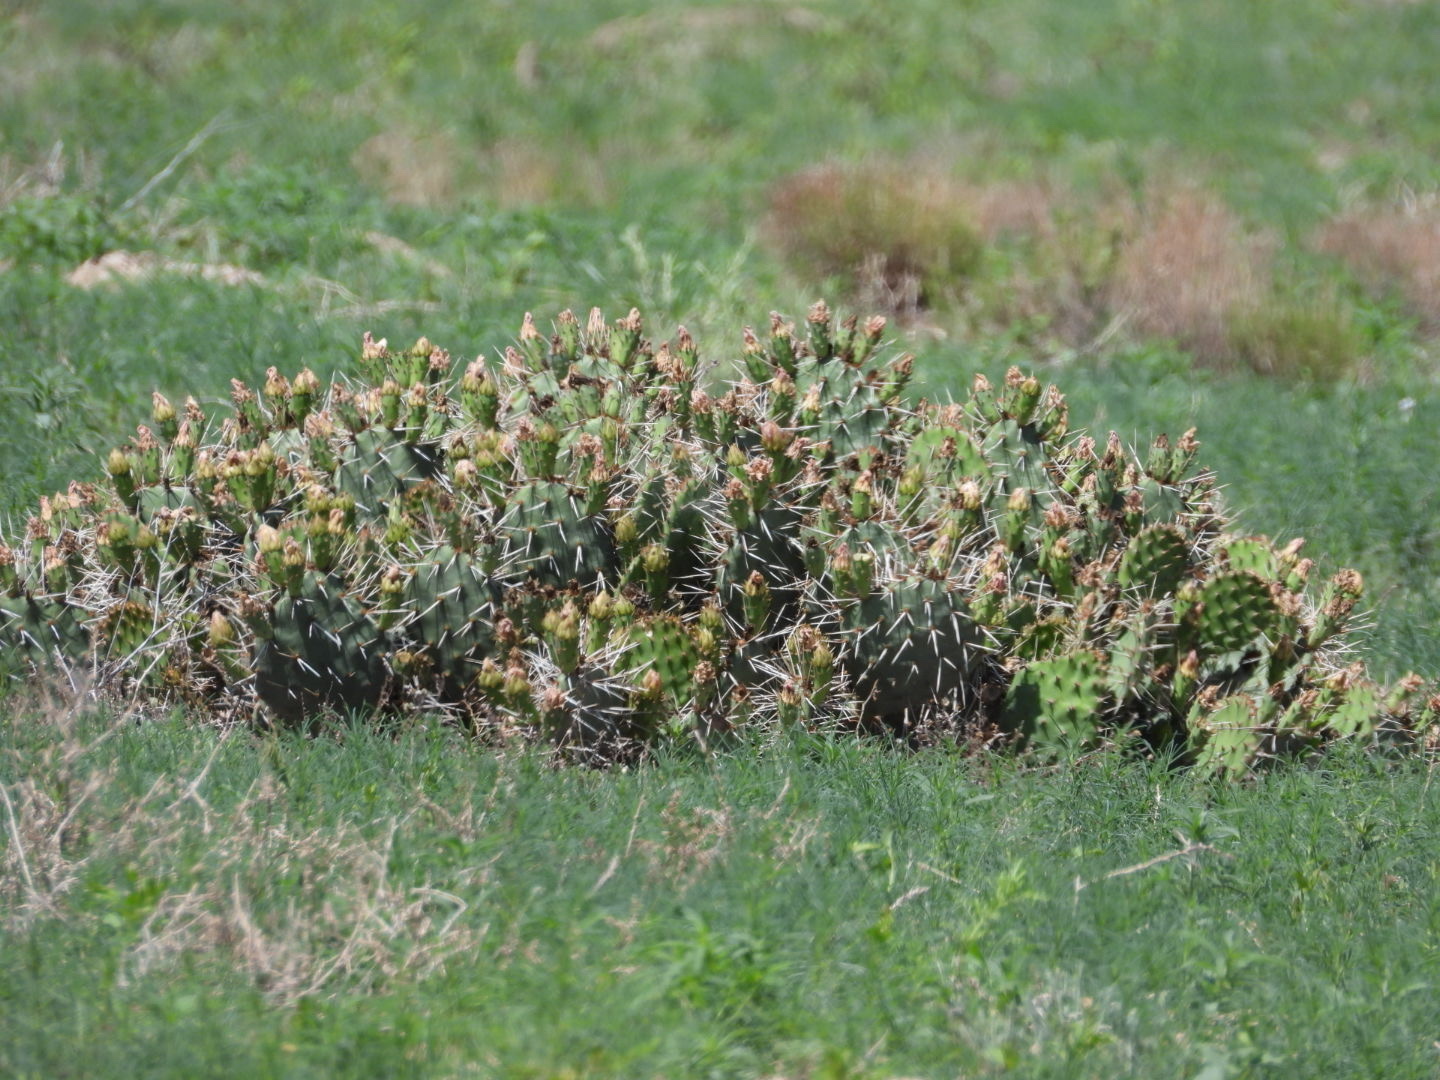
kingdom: Plantae
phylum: Tracheophyta
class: Magnoliopsida
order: Caryophyllales
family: Cactaceae
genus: Opuntia
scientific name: Opuntia polyacantha
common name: Plains prickly-pear
